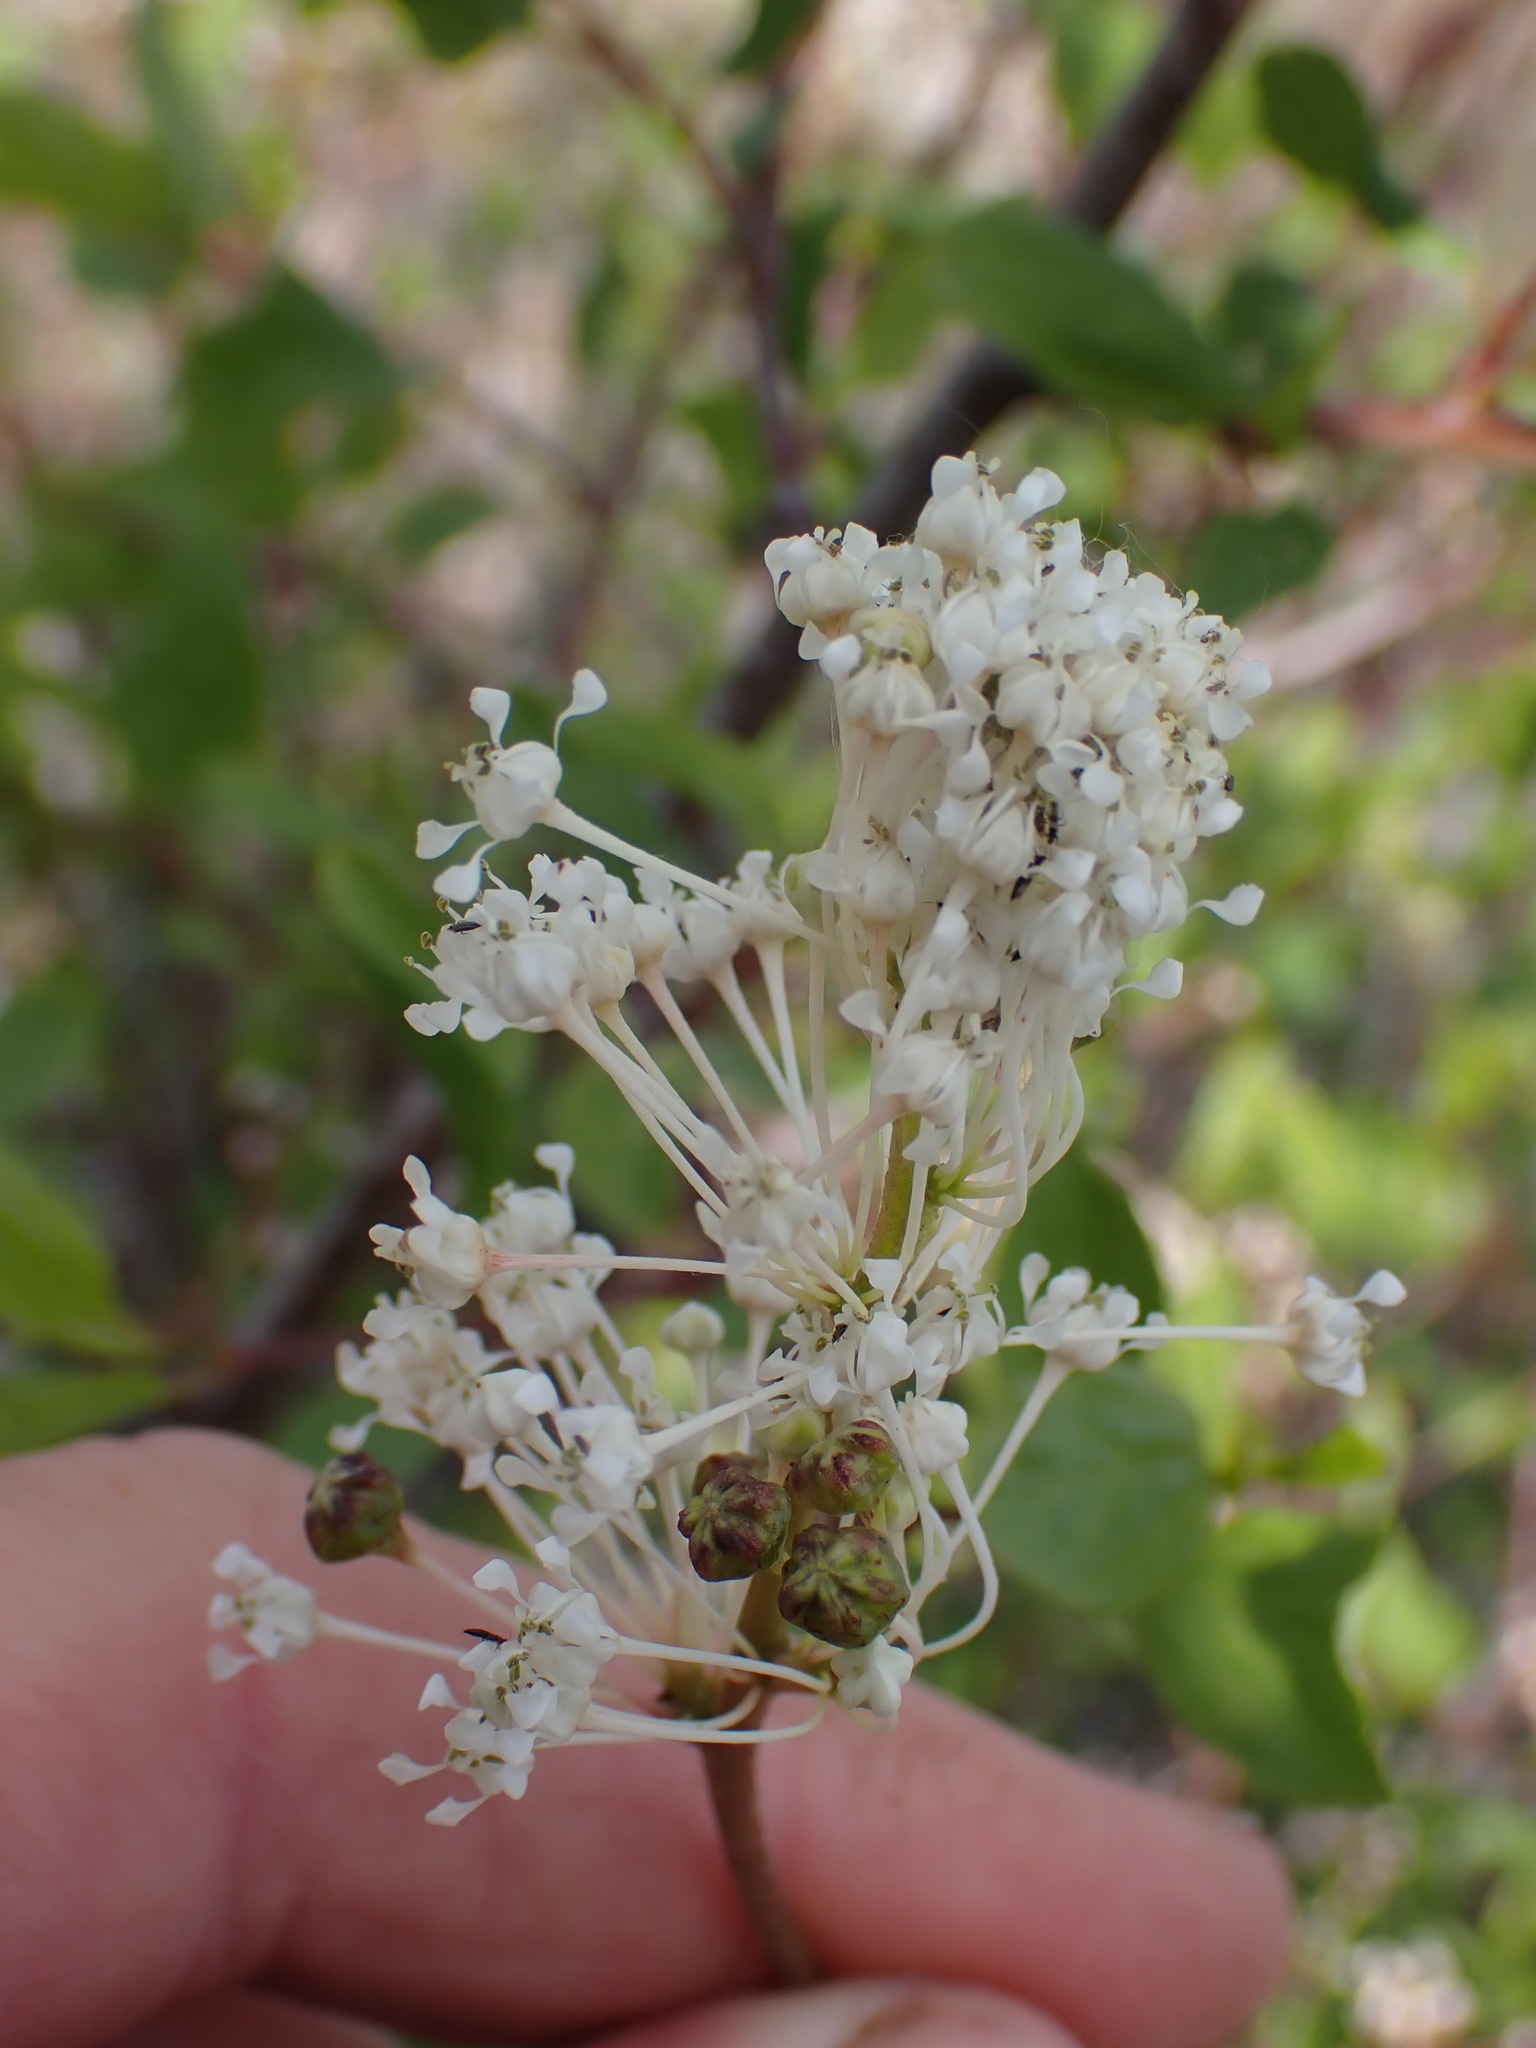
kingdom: Plantae
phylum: Tracheophyta
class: Magnoliopsida
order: Rosales
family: Rhamnaceae
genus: Ceanothus
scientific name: Ceanothus sanguineus
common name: Teatree
